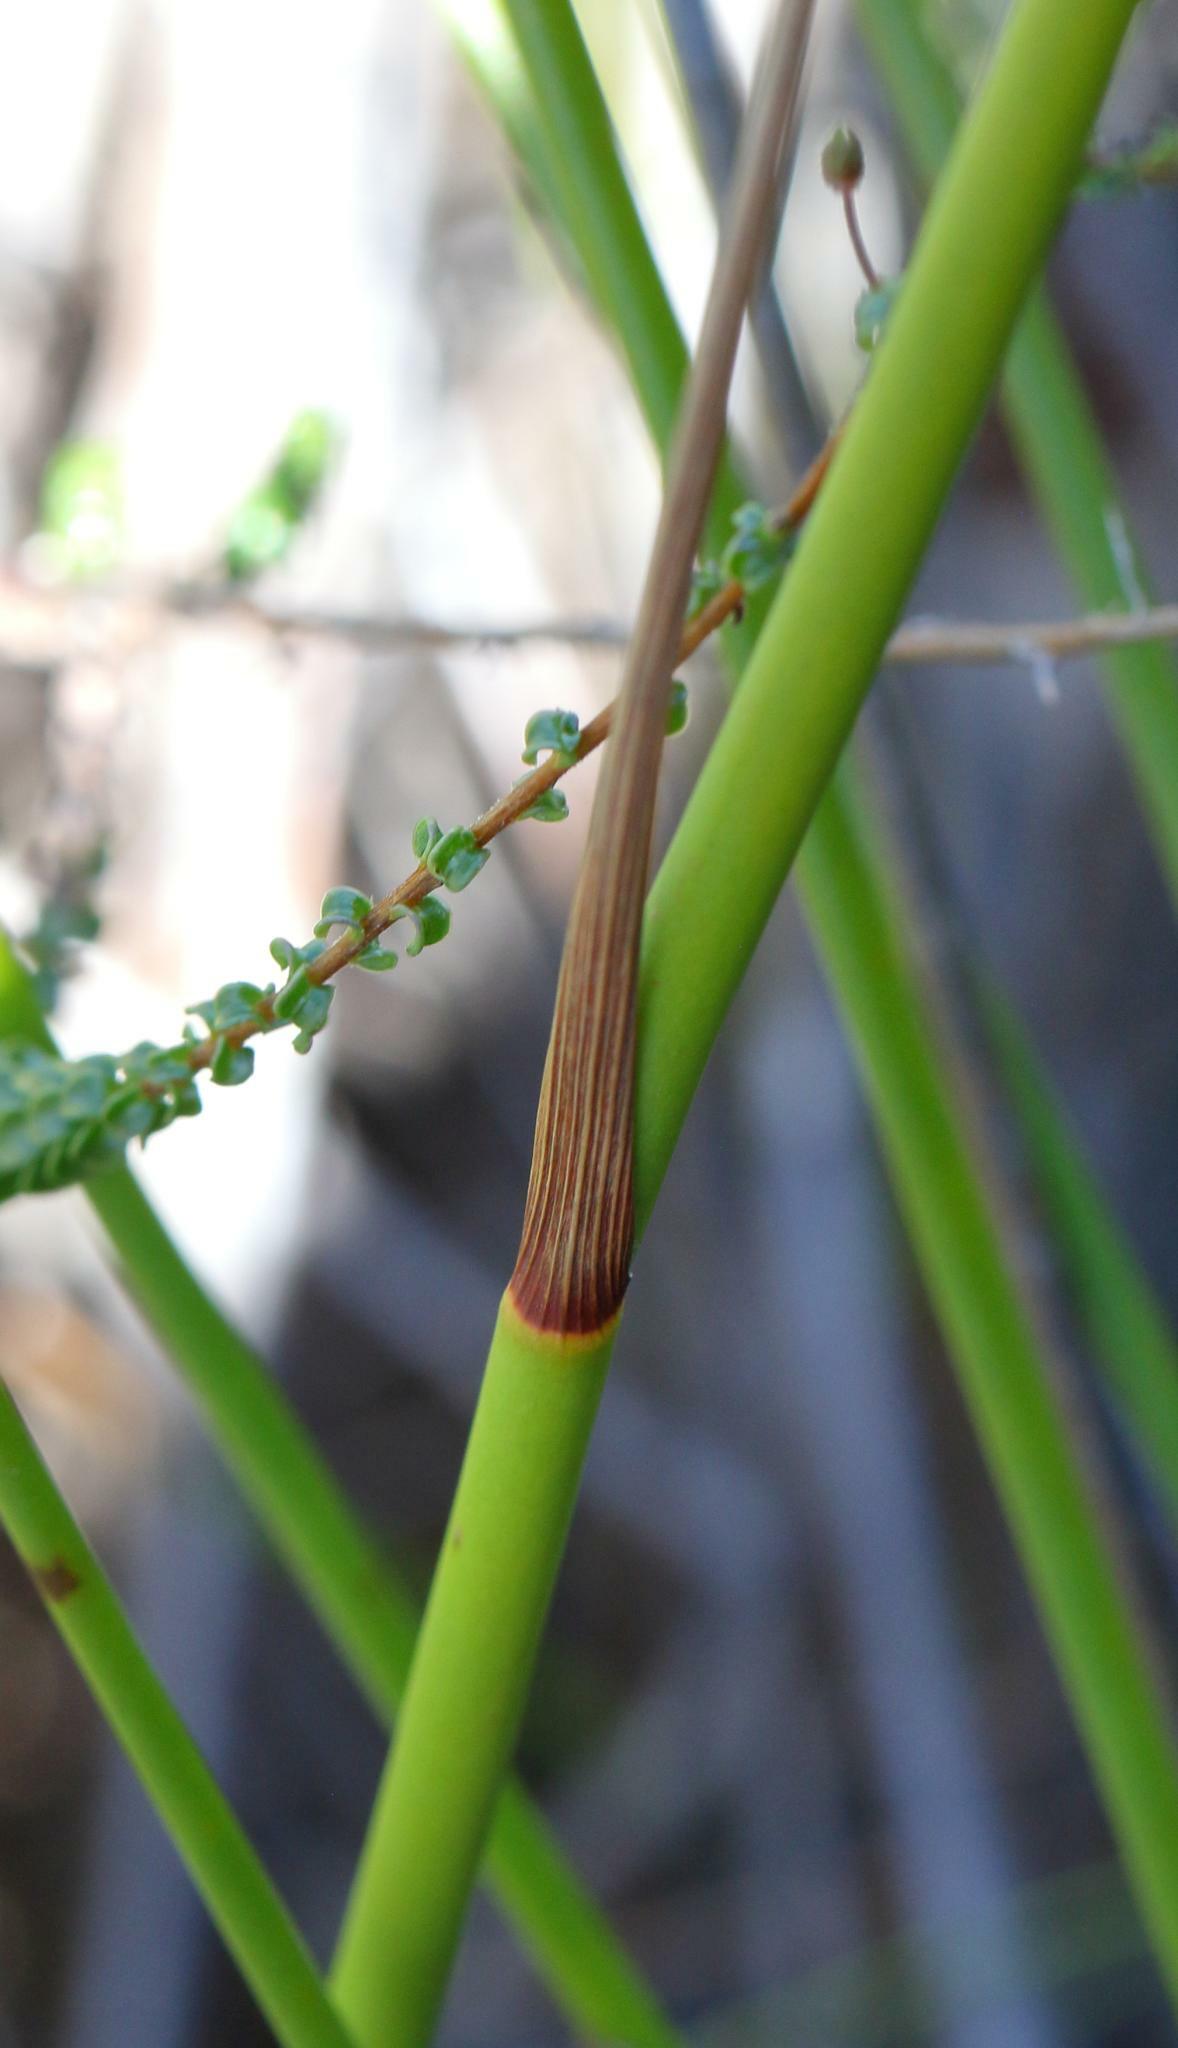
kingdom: Plantae
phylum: Tracheophyta
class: Liliopsida
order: Asparagales
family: Iridaceae
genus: Tritoniopsis
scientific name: Tritoniopsis triticea
